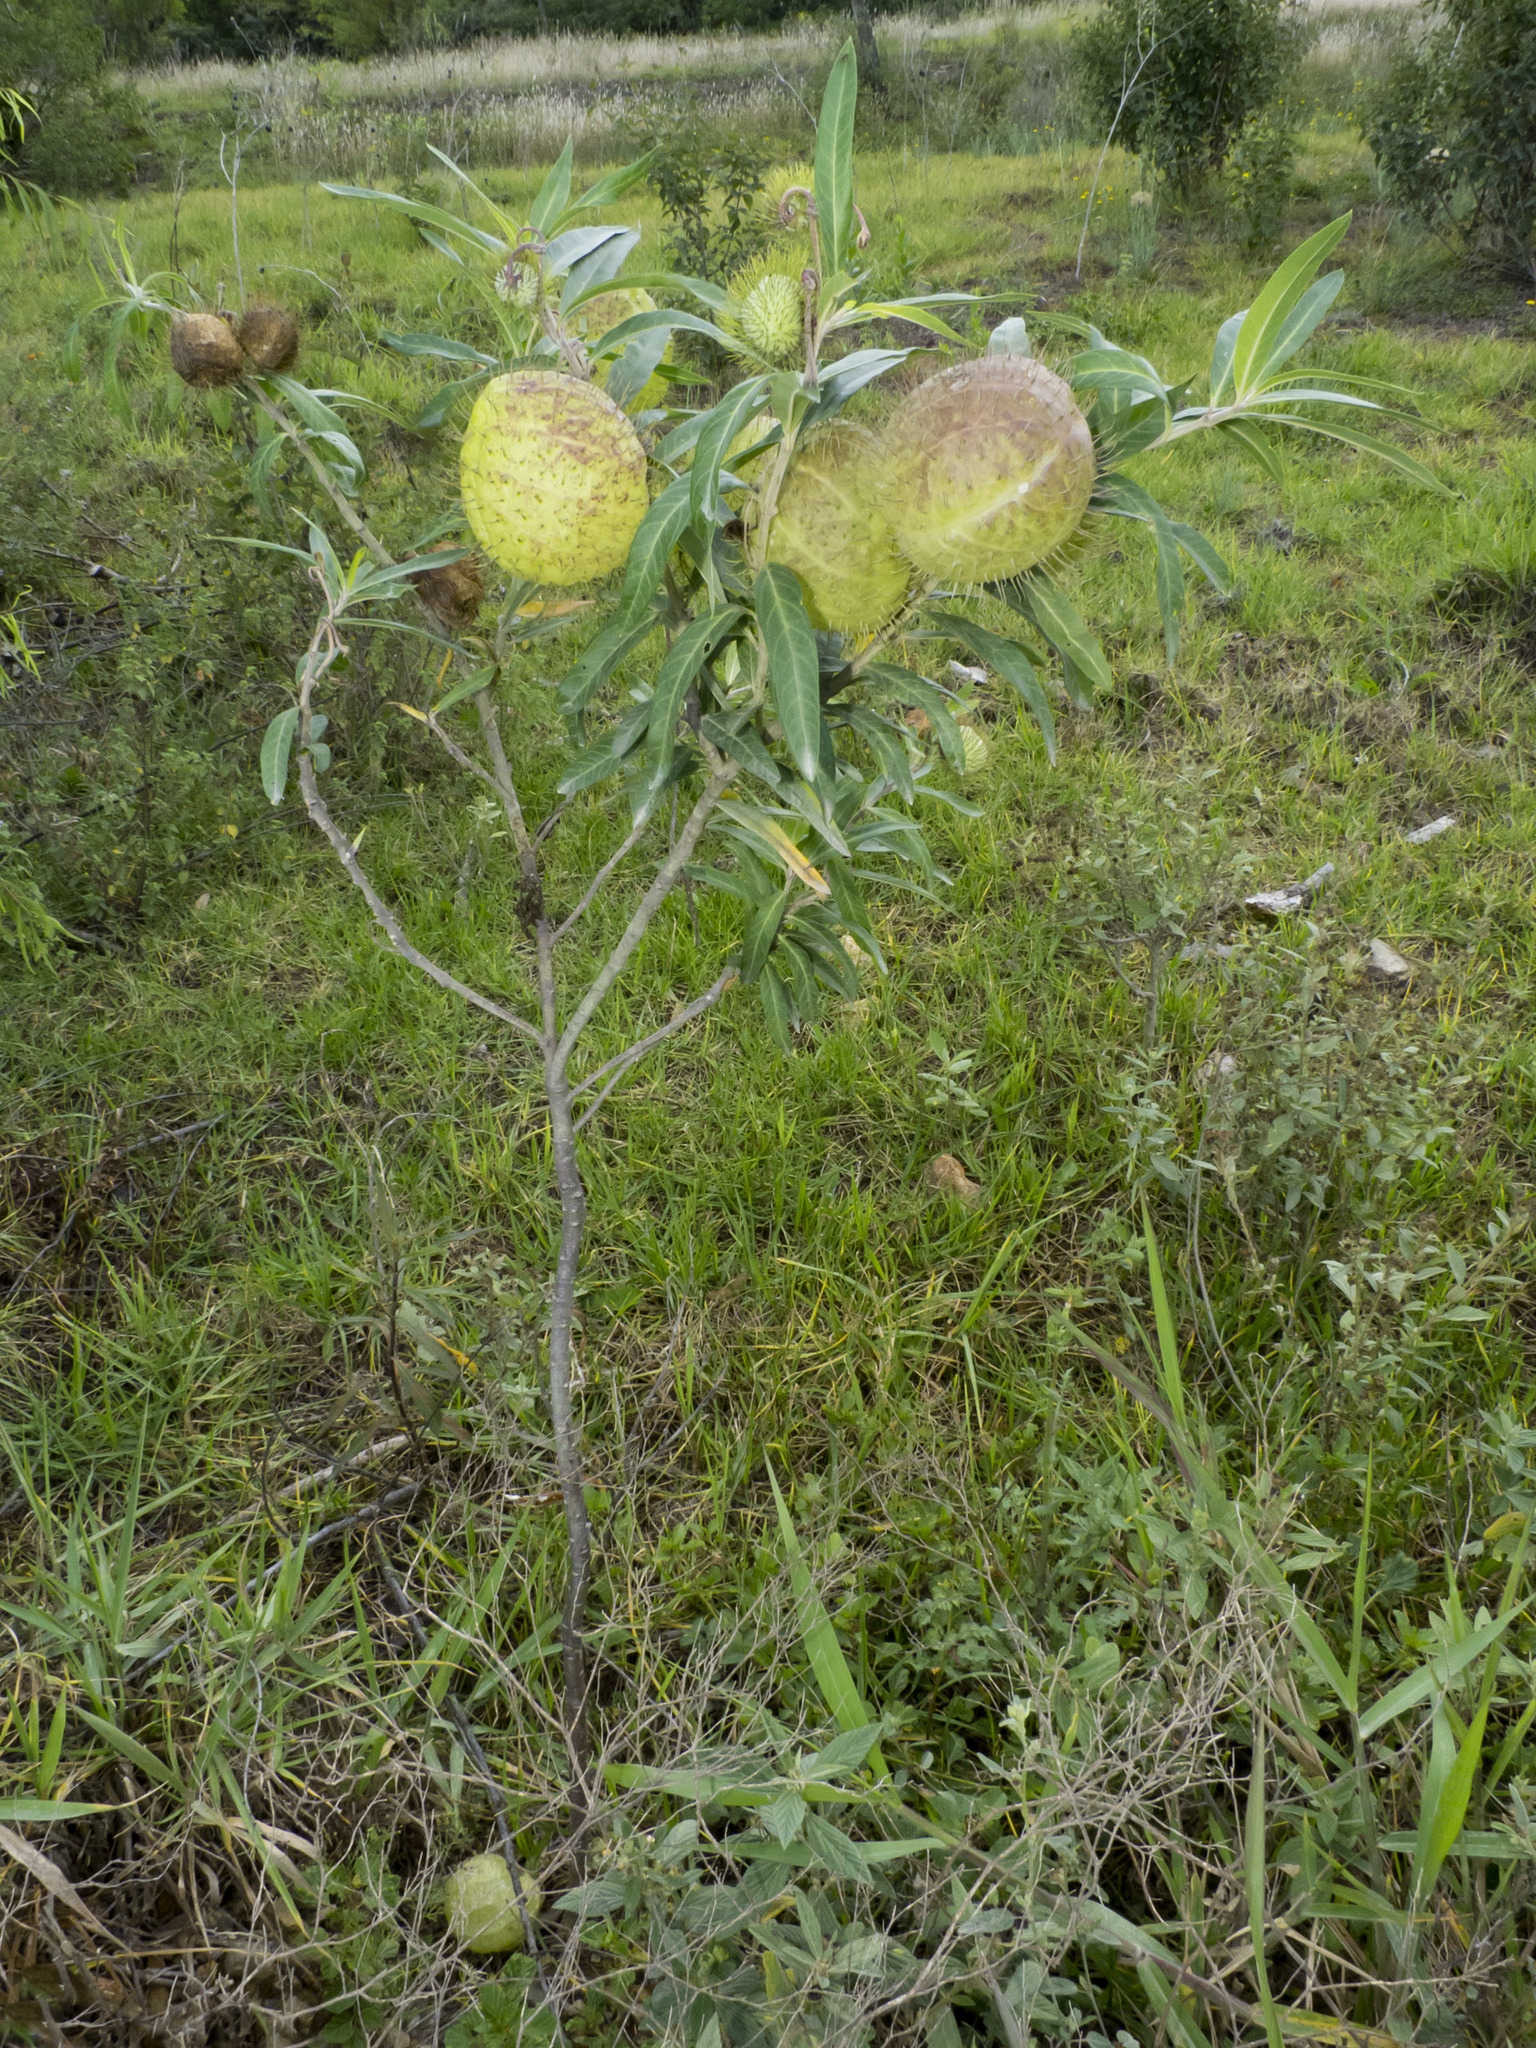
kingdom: Plantae
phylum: Tracheophyta
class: Magnoliopsida
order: Gentianales
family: Apocynaceae
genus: Gomphocarpus
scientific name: Gomphocarpus physocarpus
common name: Balloon cotton bush
